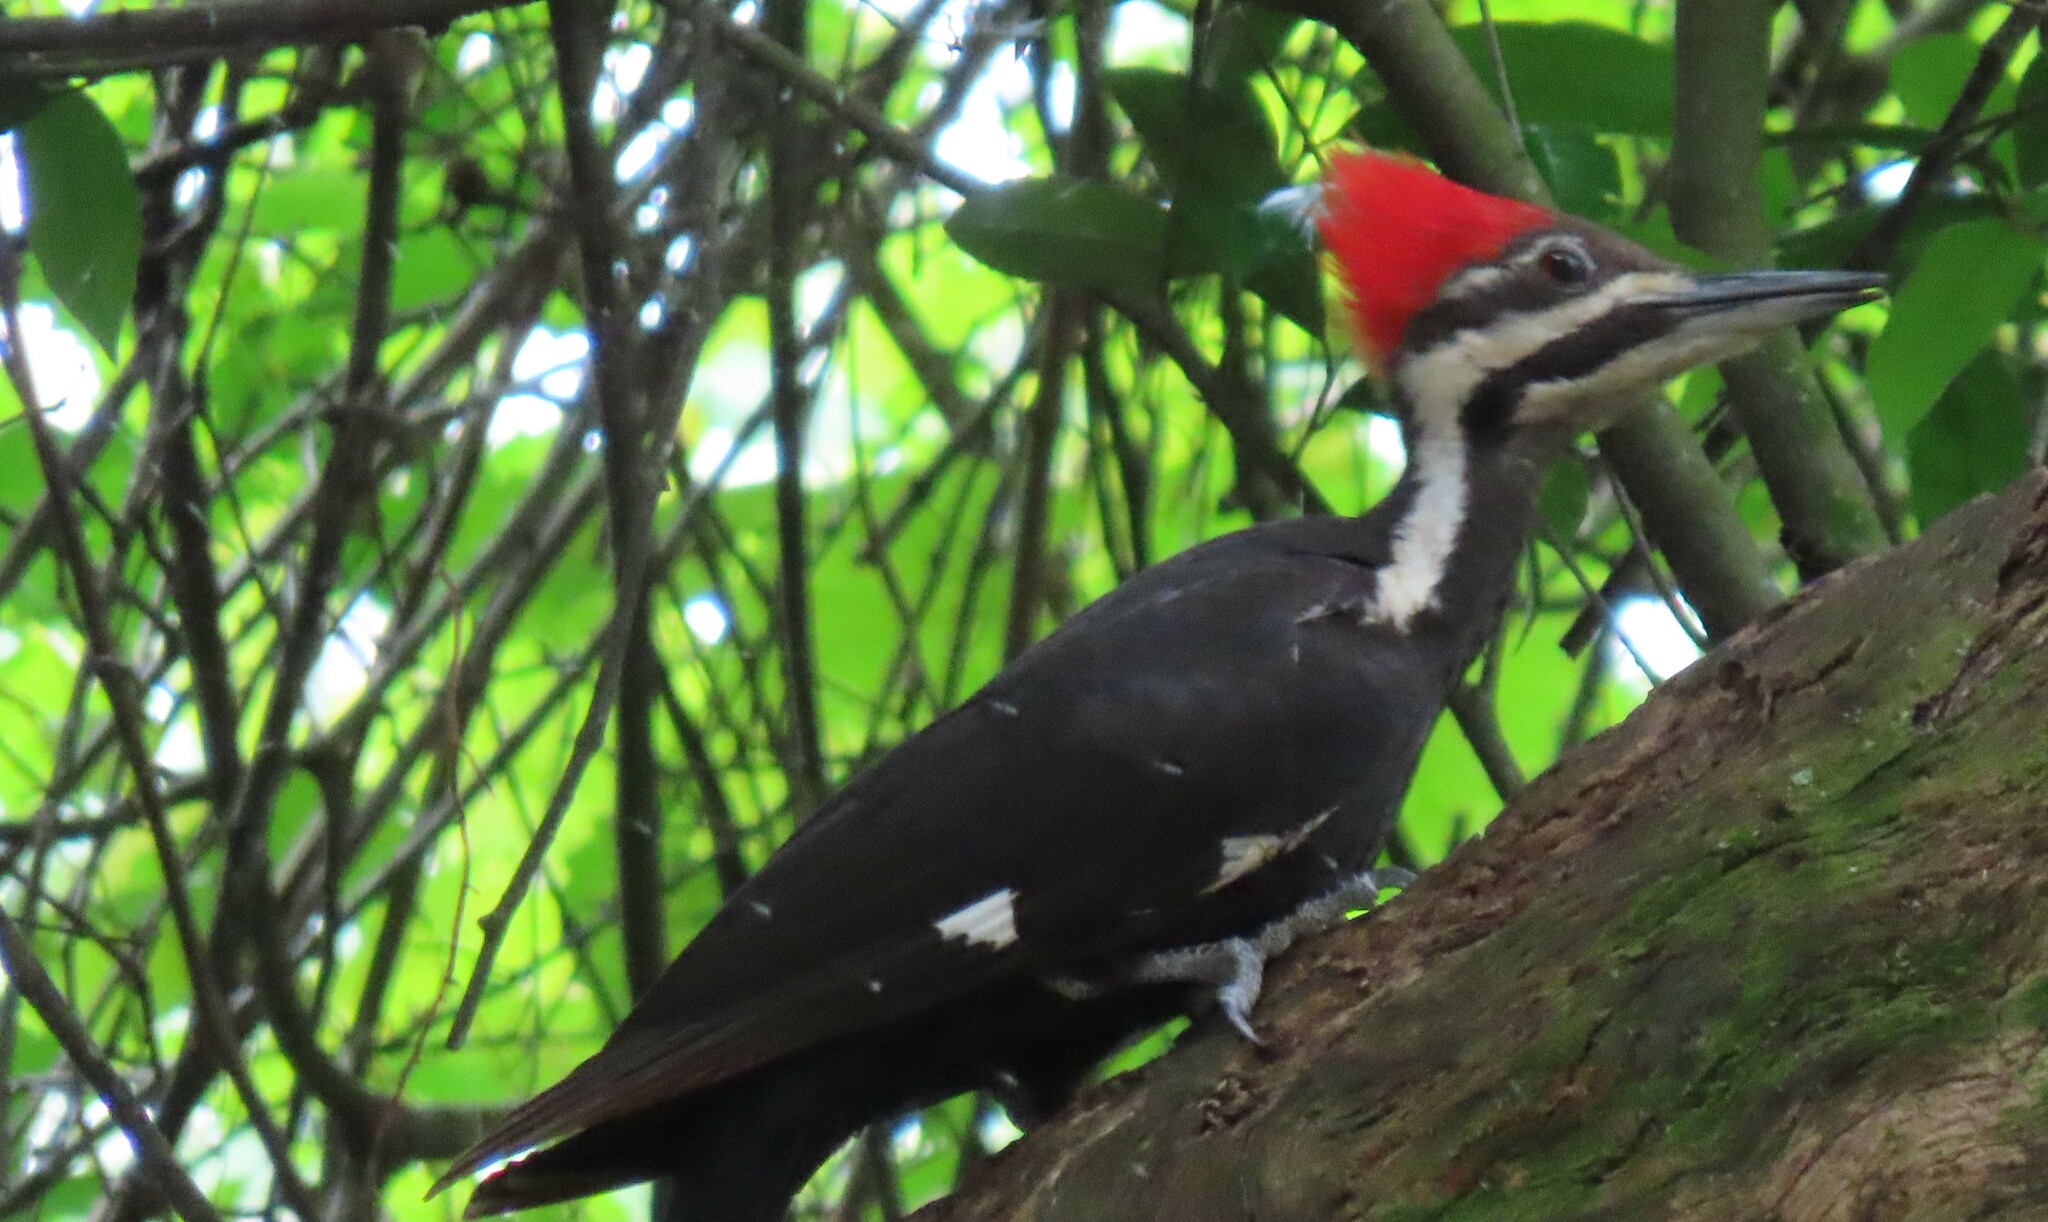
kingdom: Animalia
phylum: Chordata
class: Aves
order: Piciformes
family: Picidae
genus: Dryocopus
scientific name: Dryocopus pileatus
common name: Pileated woodpecker
